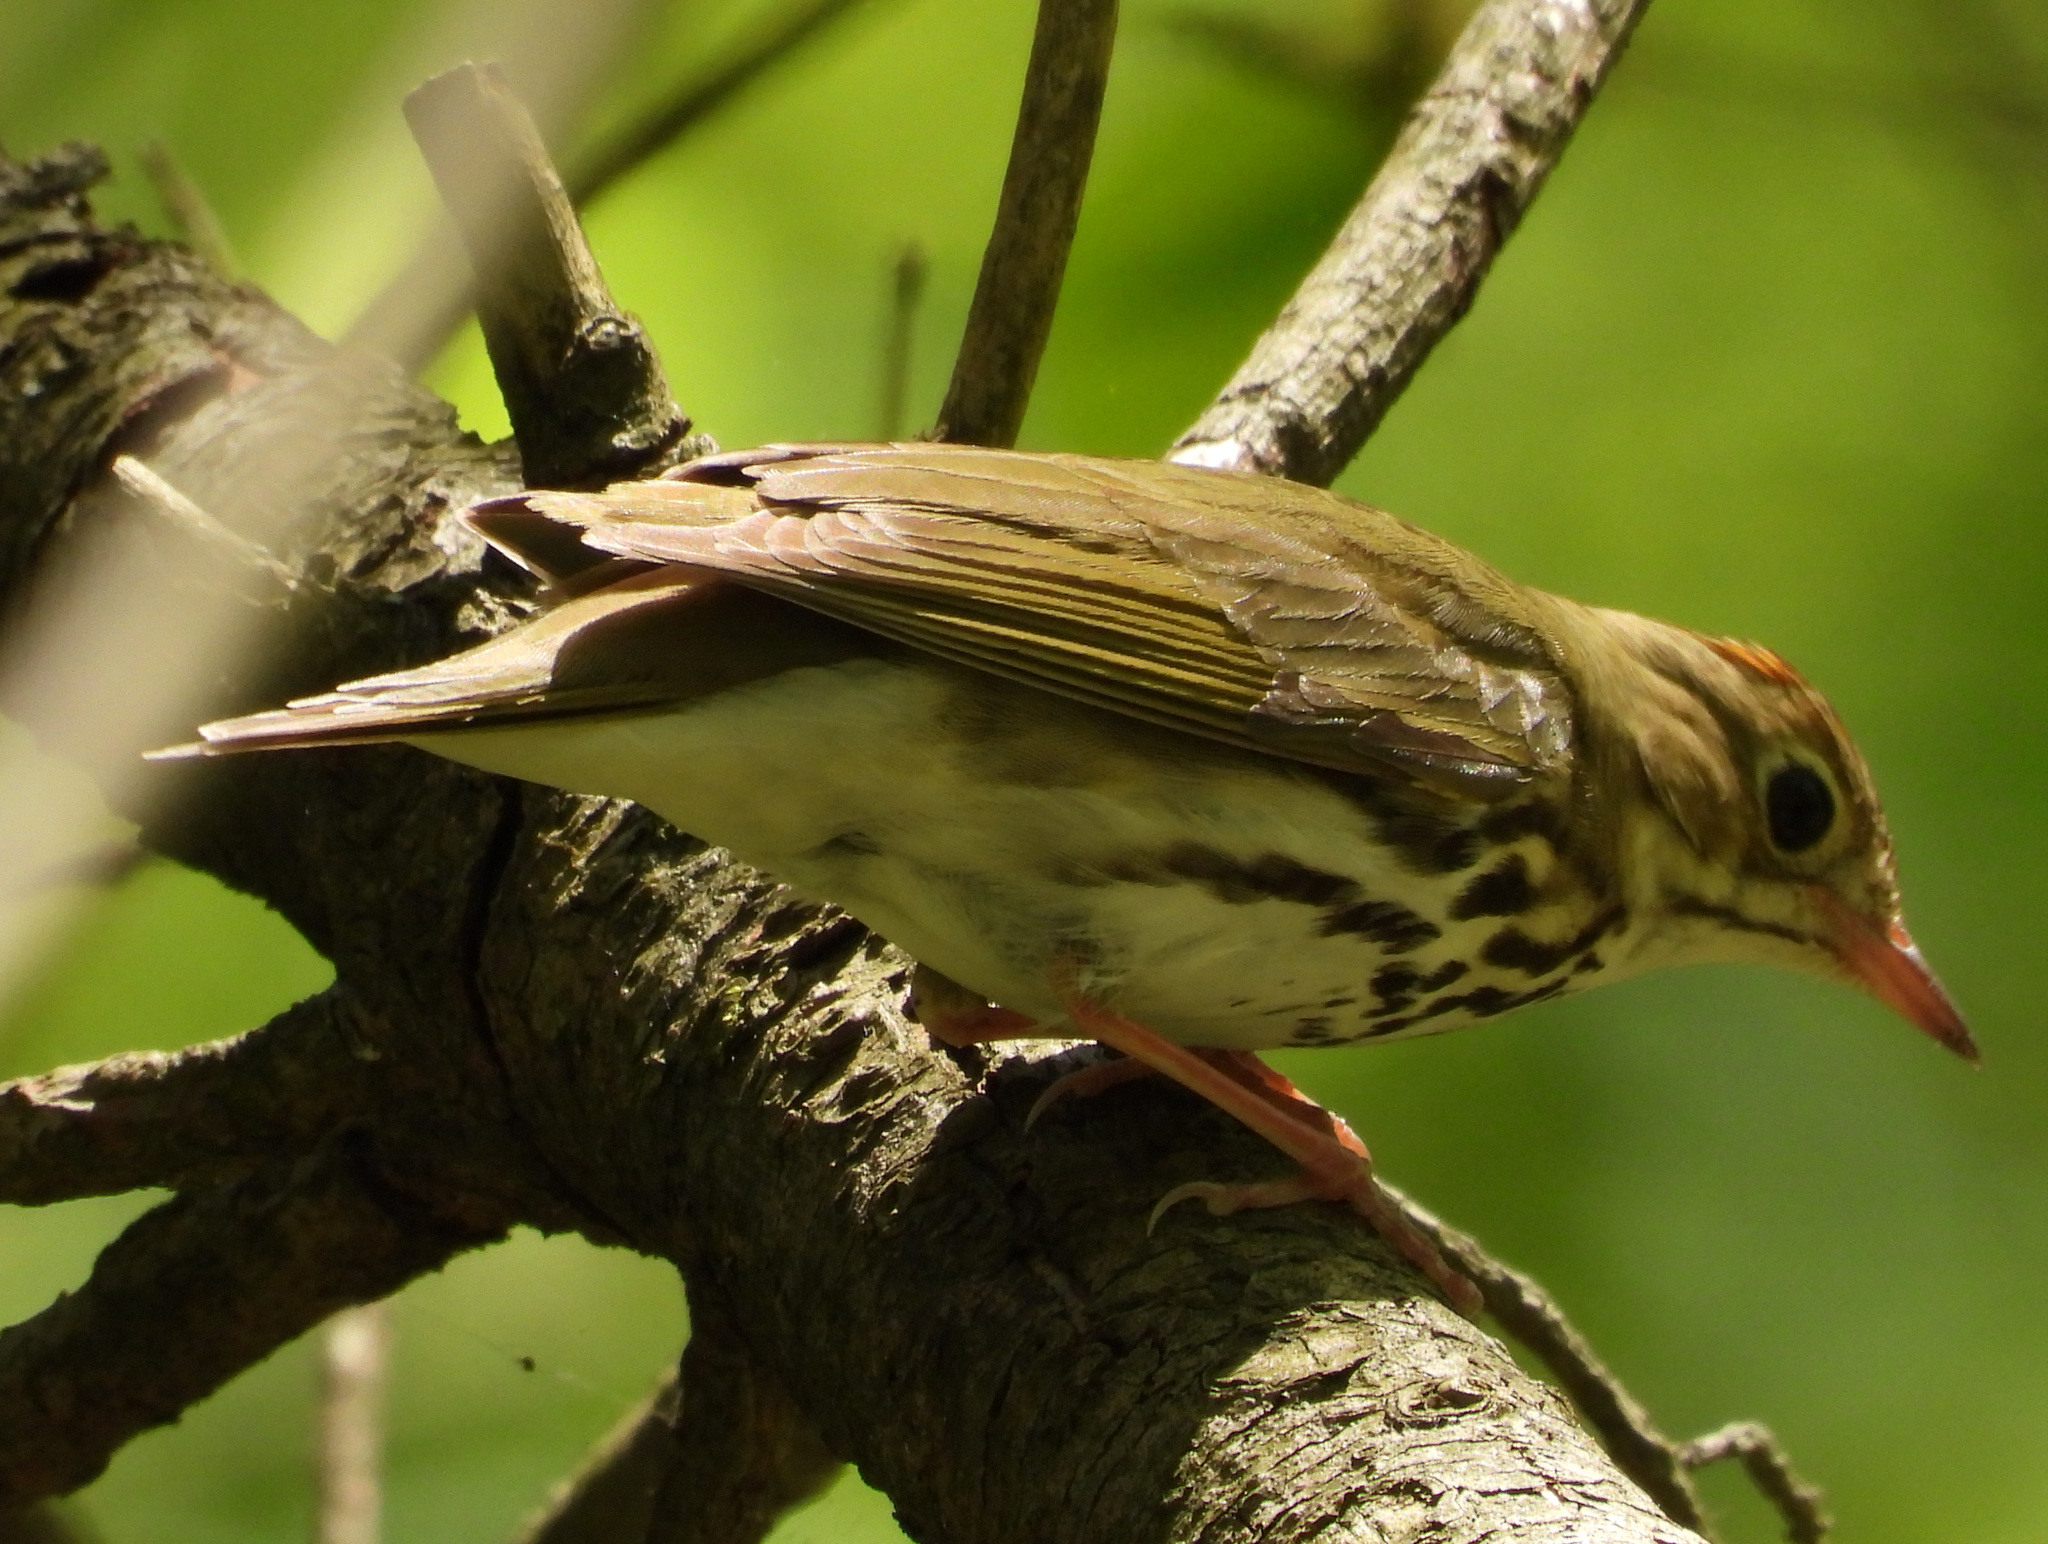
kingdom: Animalia
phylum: Chordata
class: Aves
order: Passeriformes
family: Parulidae
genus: Seiurus
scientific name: Seiurus aurocapilla
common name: Ovenbird
